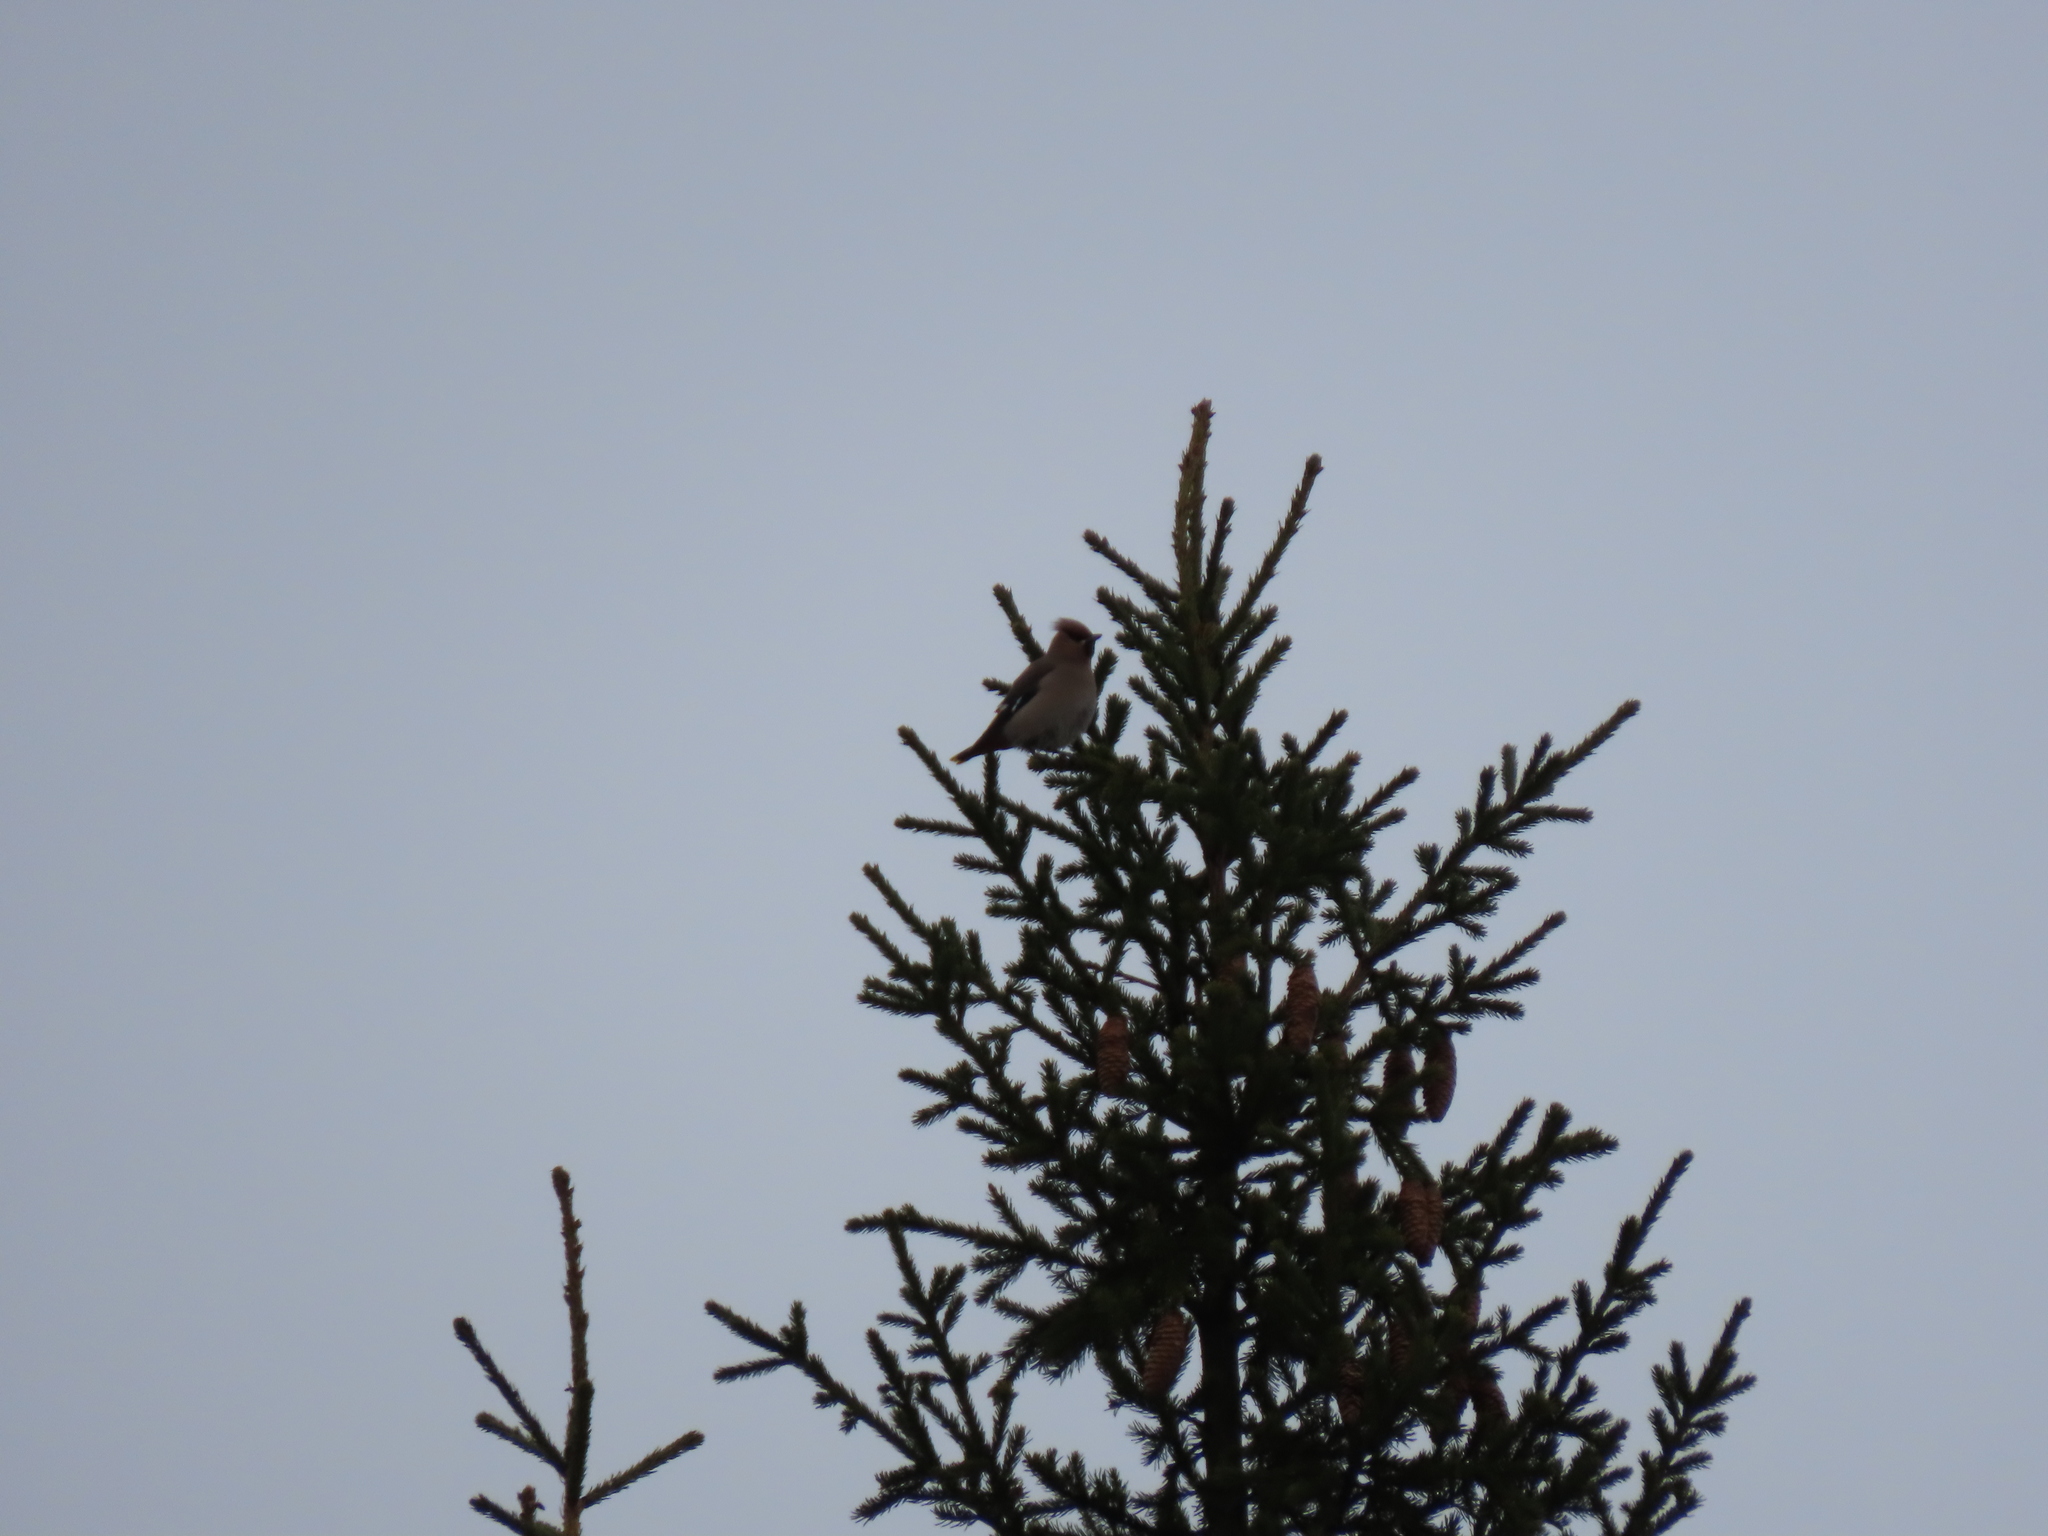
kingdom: Animalia
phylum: Chordata
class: Aves
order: Passeriformes
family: Bombycillidae
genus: Bombycilla
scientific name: Bombycilla garrulus
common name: Bohemian waxwing
